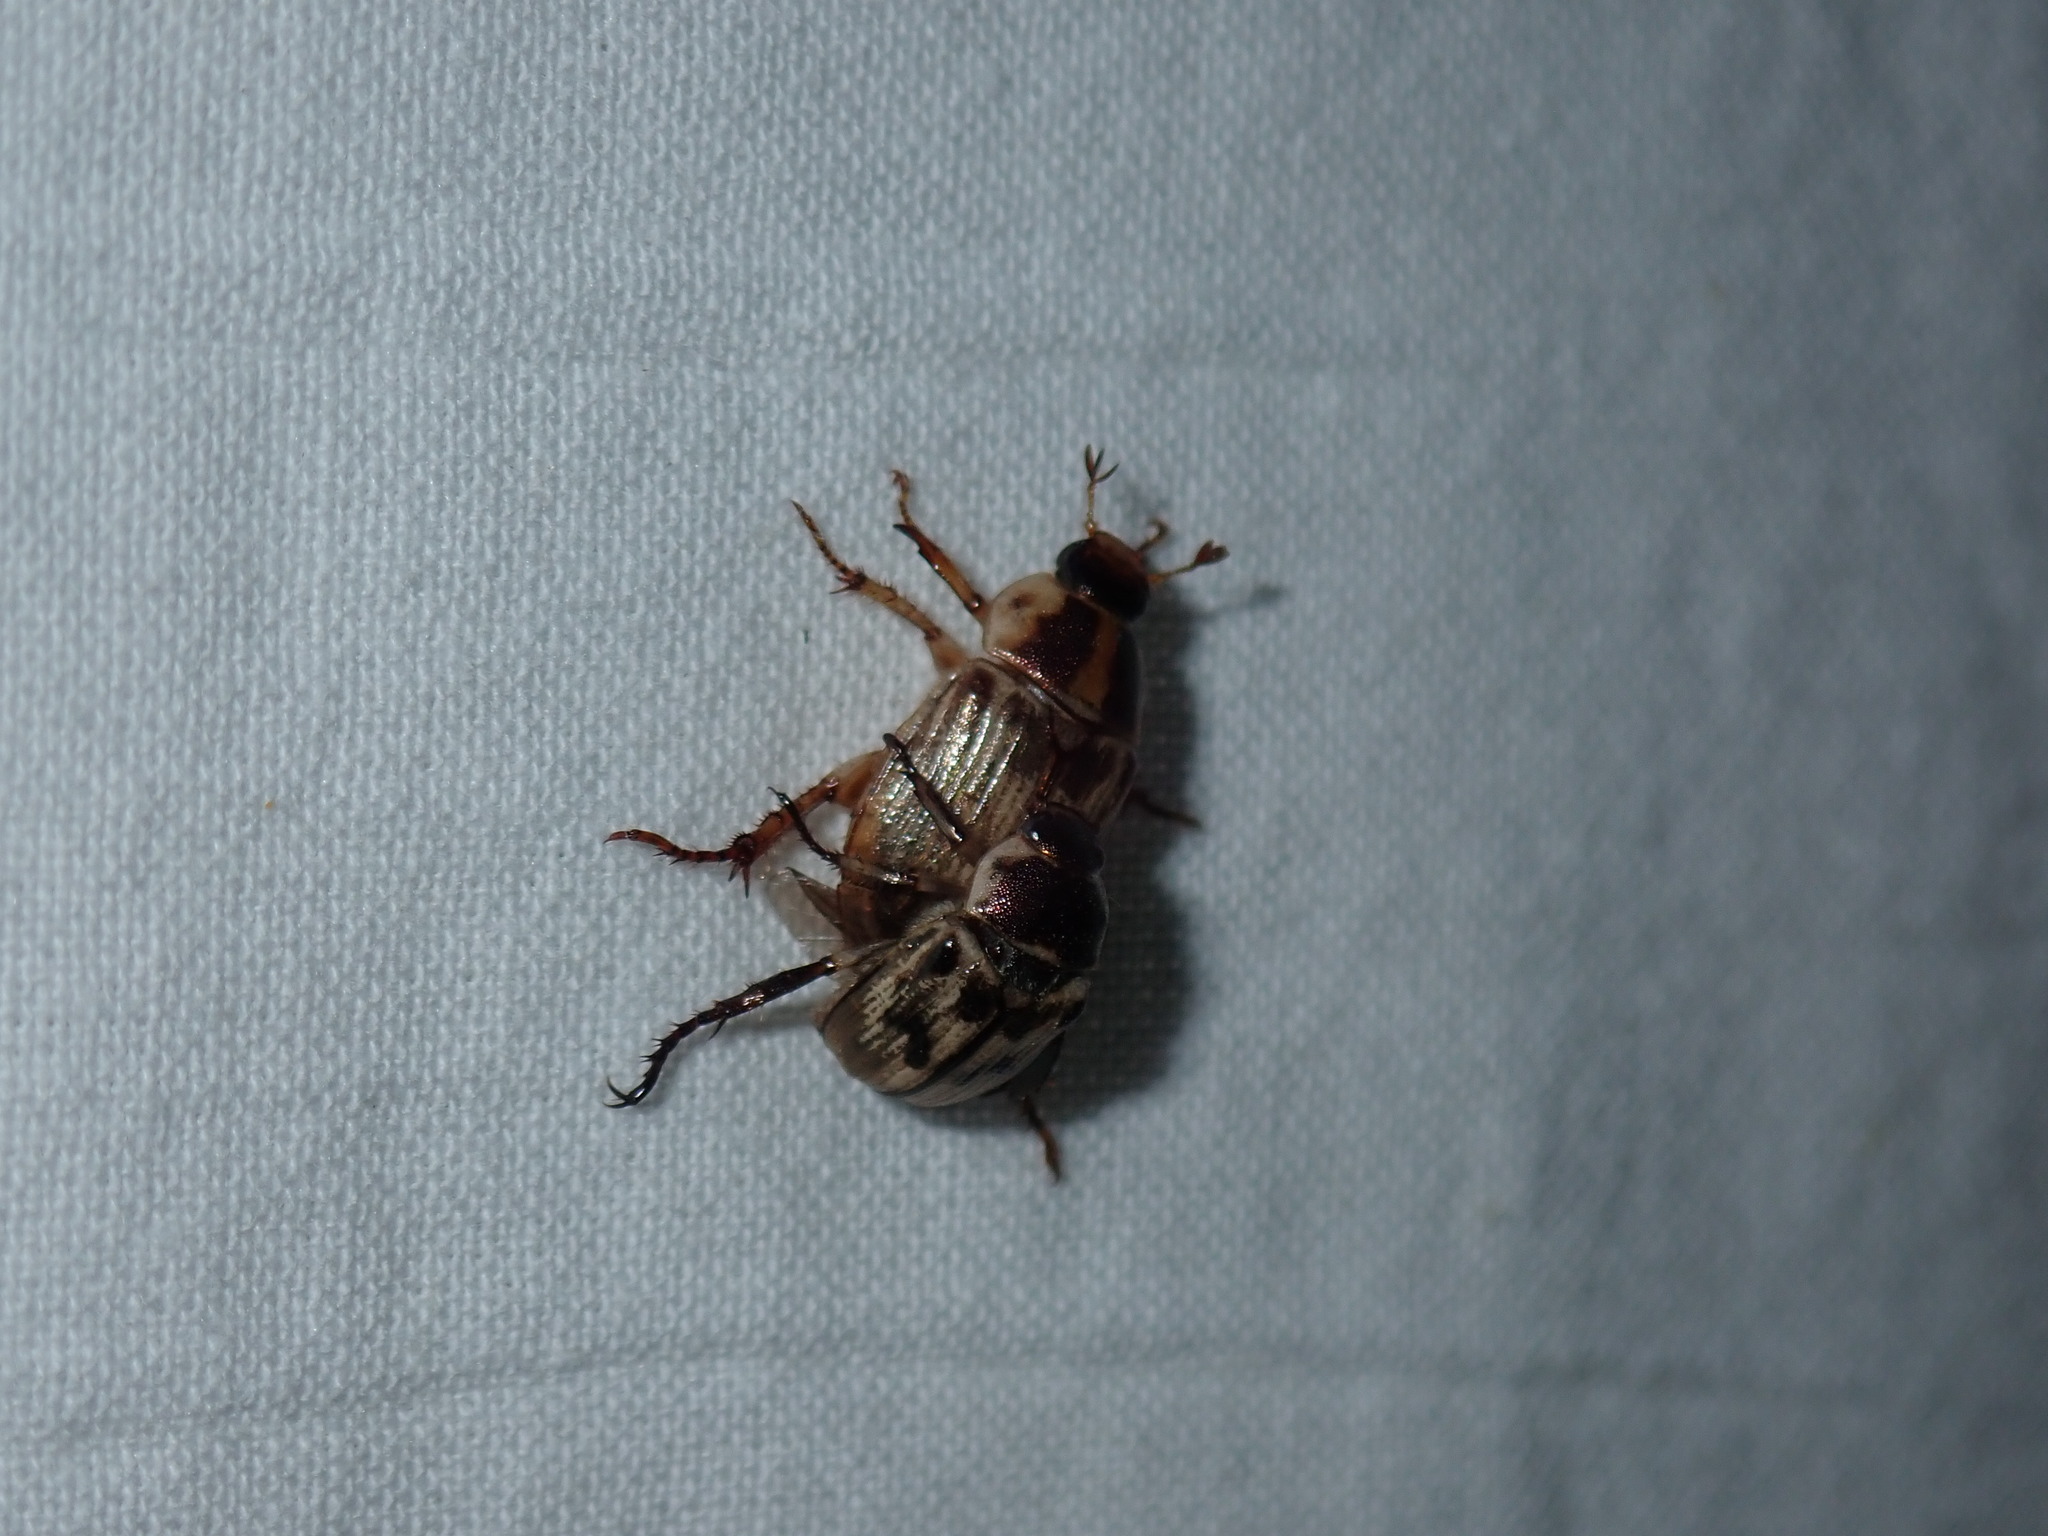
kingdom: Animalia
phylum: Arthropoda
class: Insecta
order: Coleoptera
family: Scarabaeidae
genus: Exomala
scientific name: Exomala orientalis
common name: Oriental beetle
